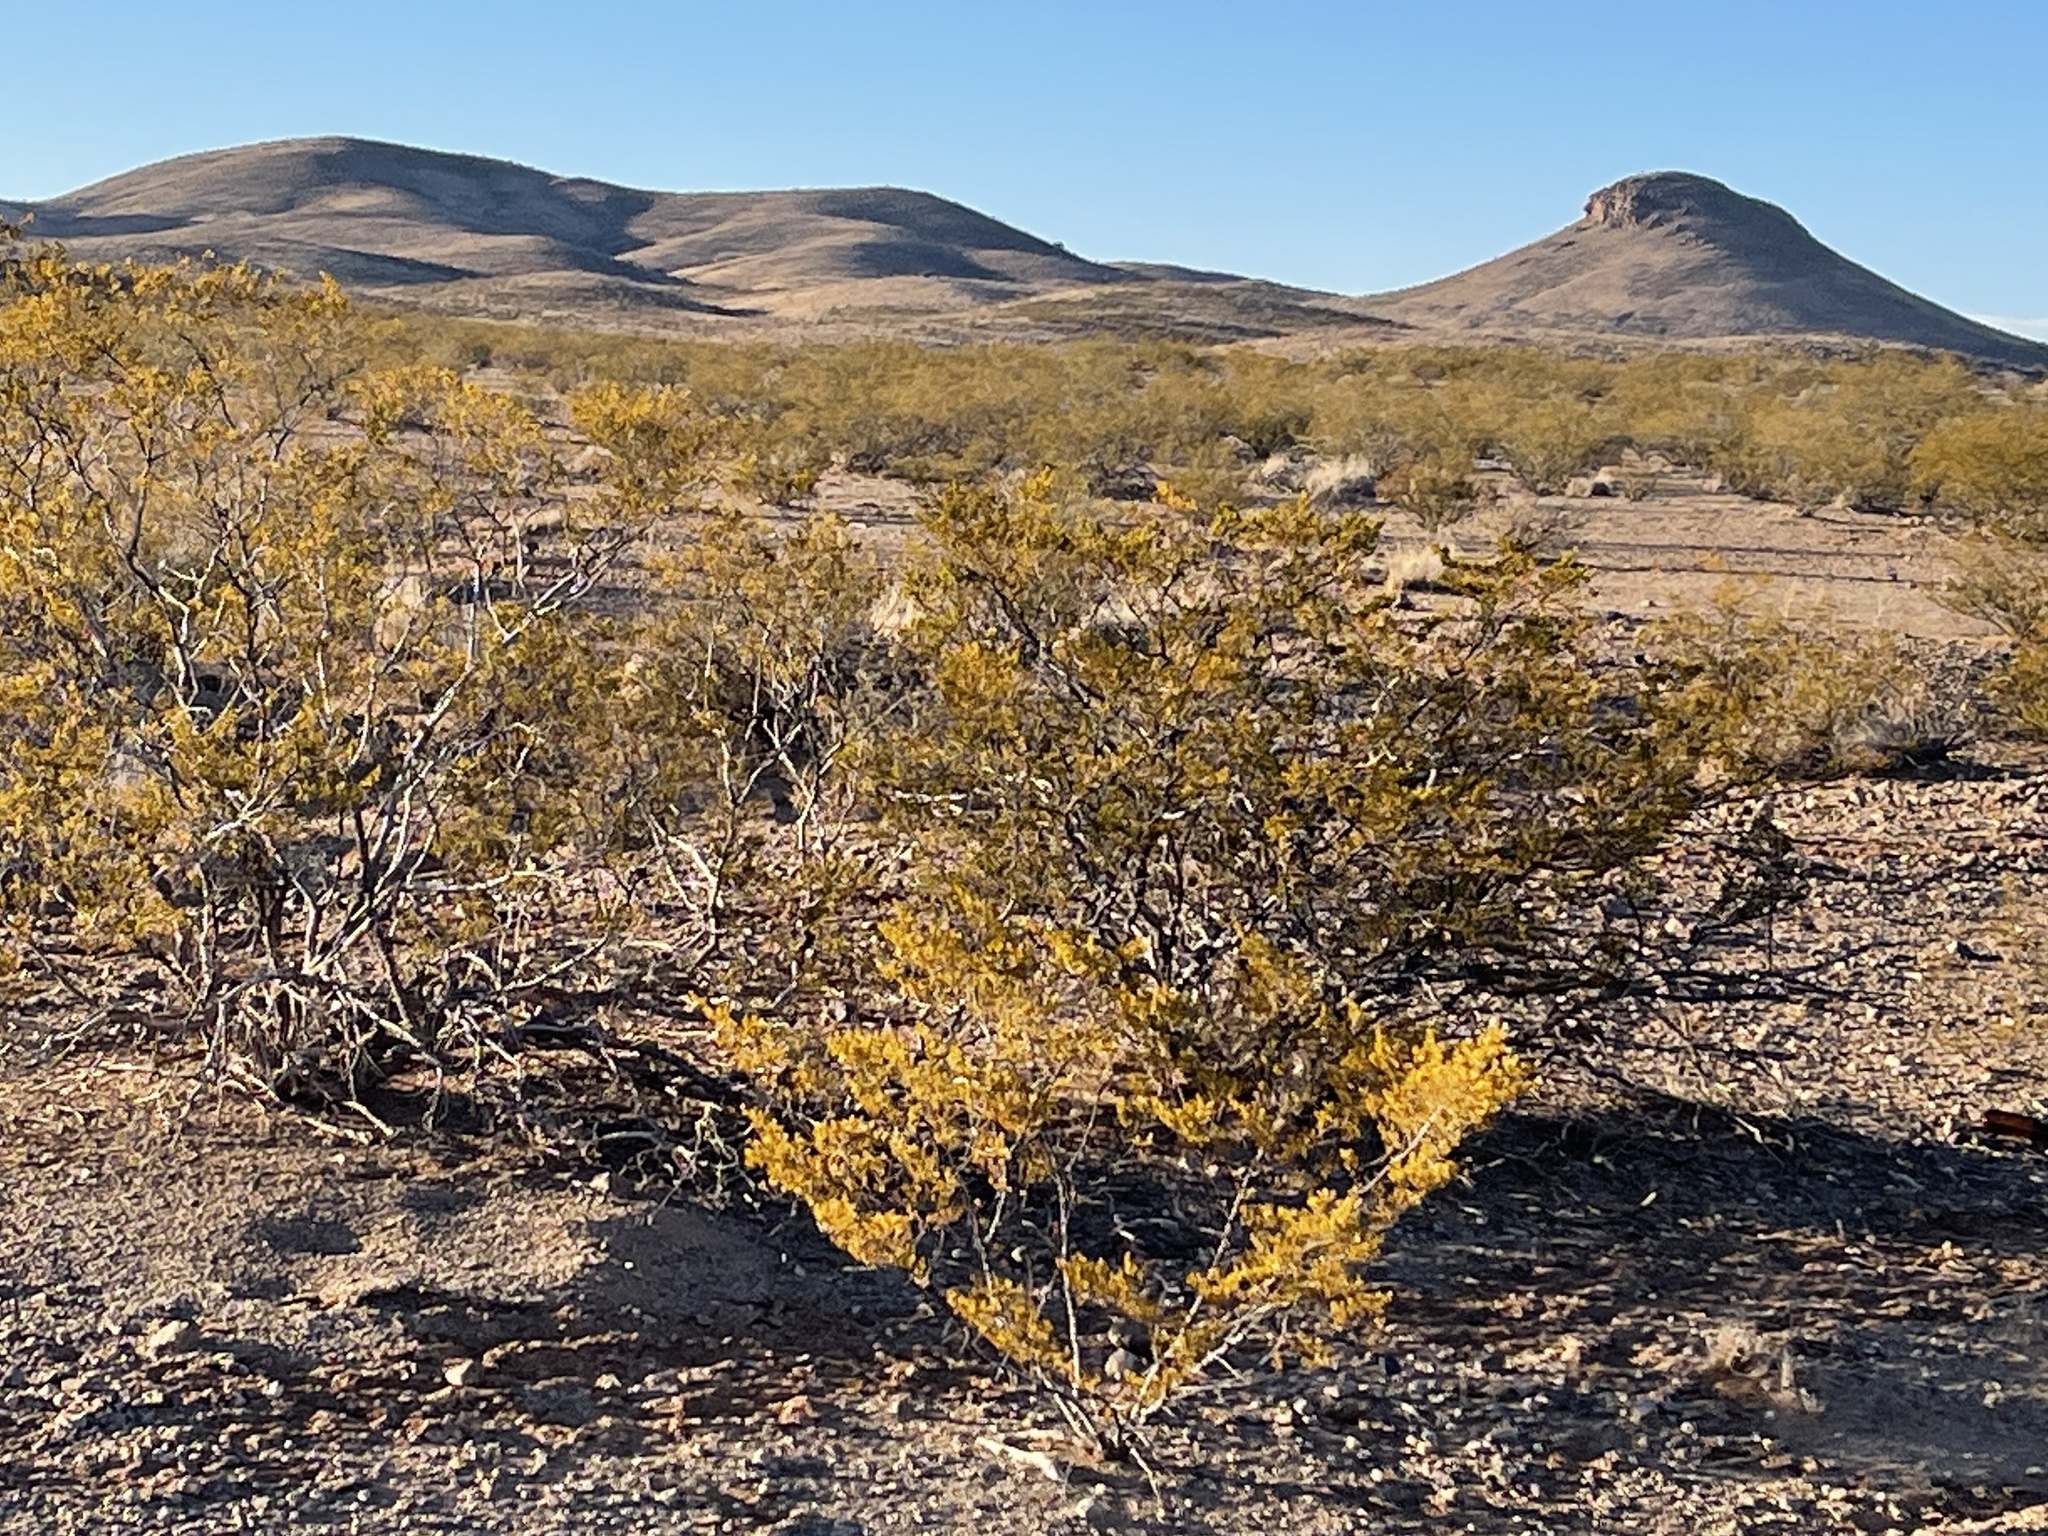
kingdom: Plantae
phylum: Tracheophyta
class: Magnoliopsida
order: Zygophyllales
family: Zygophyllaceae
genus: Larrea
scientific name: Larrea tridentata
